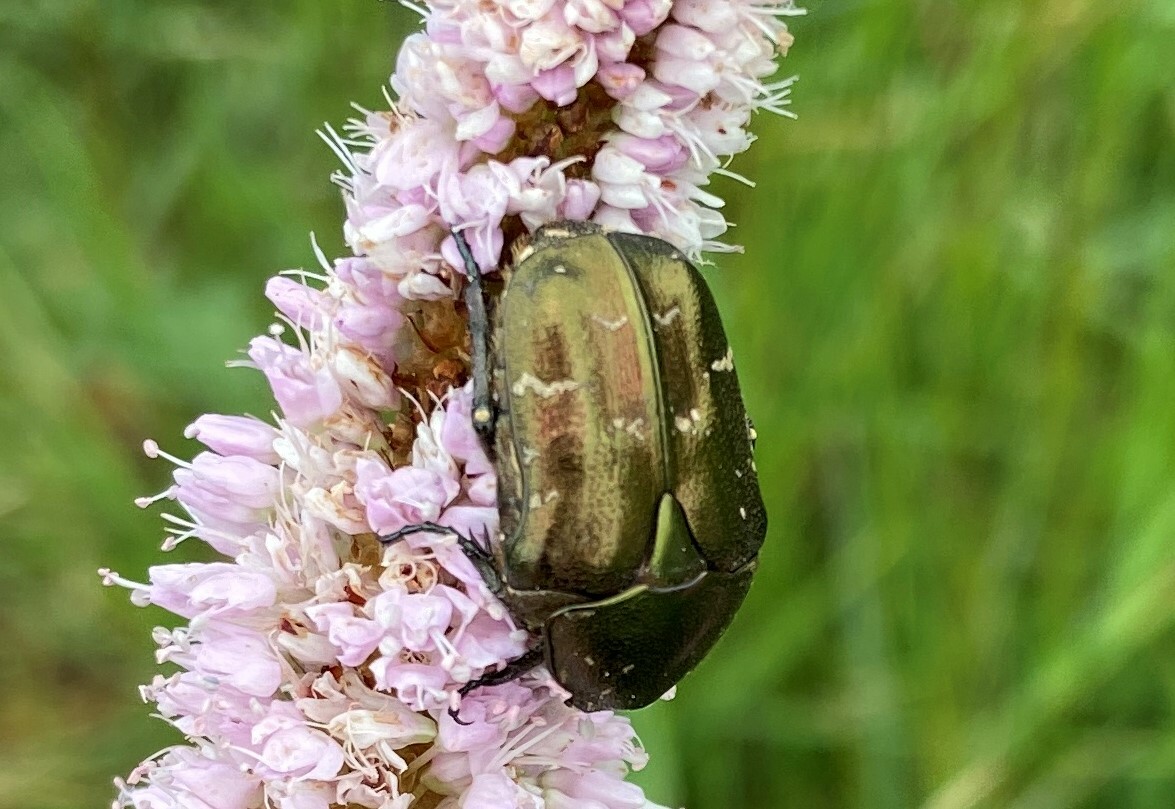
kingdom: Animalia
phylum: Arthropoda
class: Insecta
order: Coleoptera
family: Scarabaeidae
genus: Protaetia
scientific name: Protaetia cuprea
